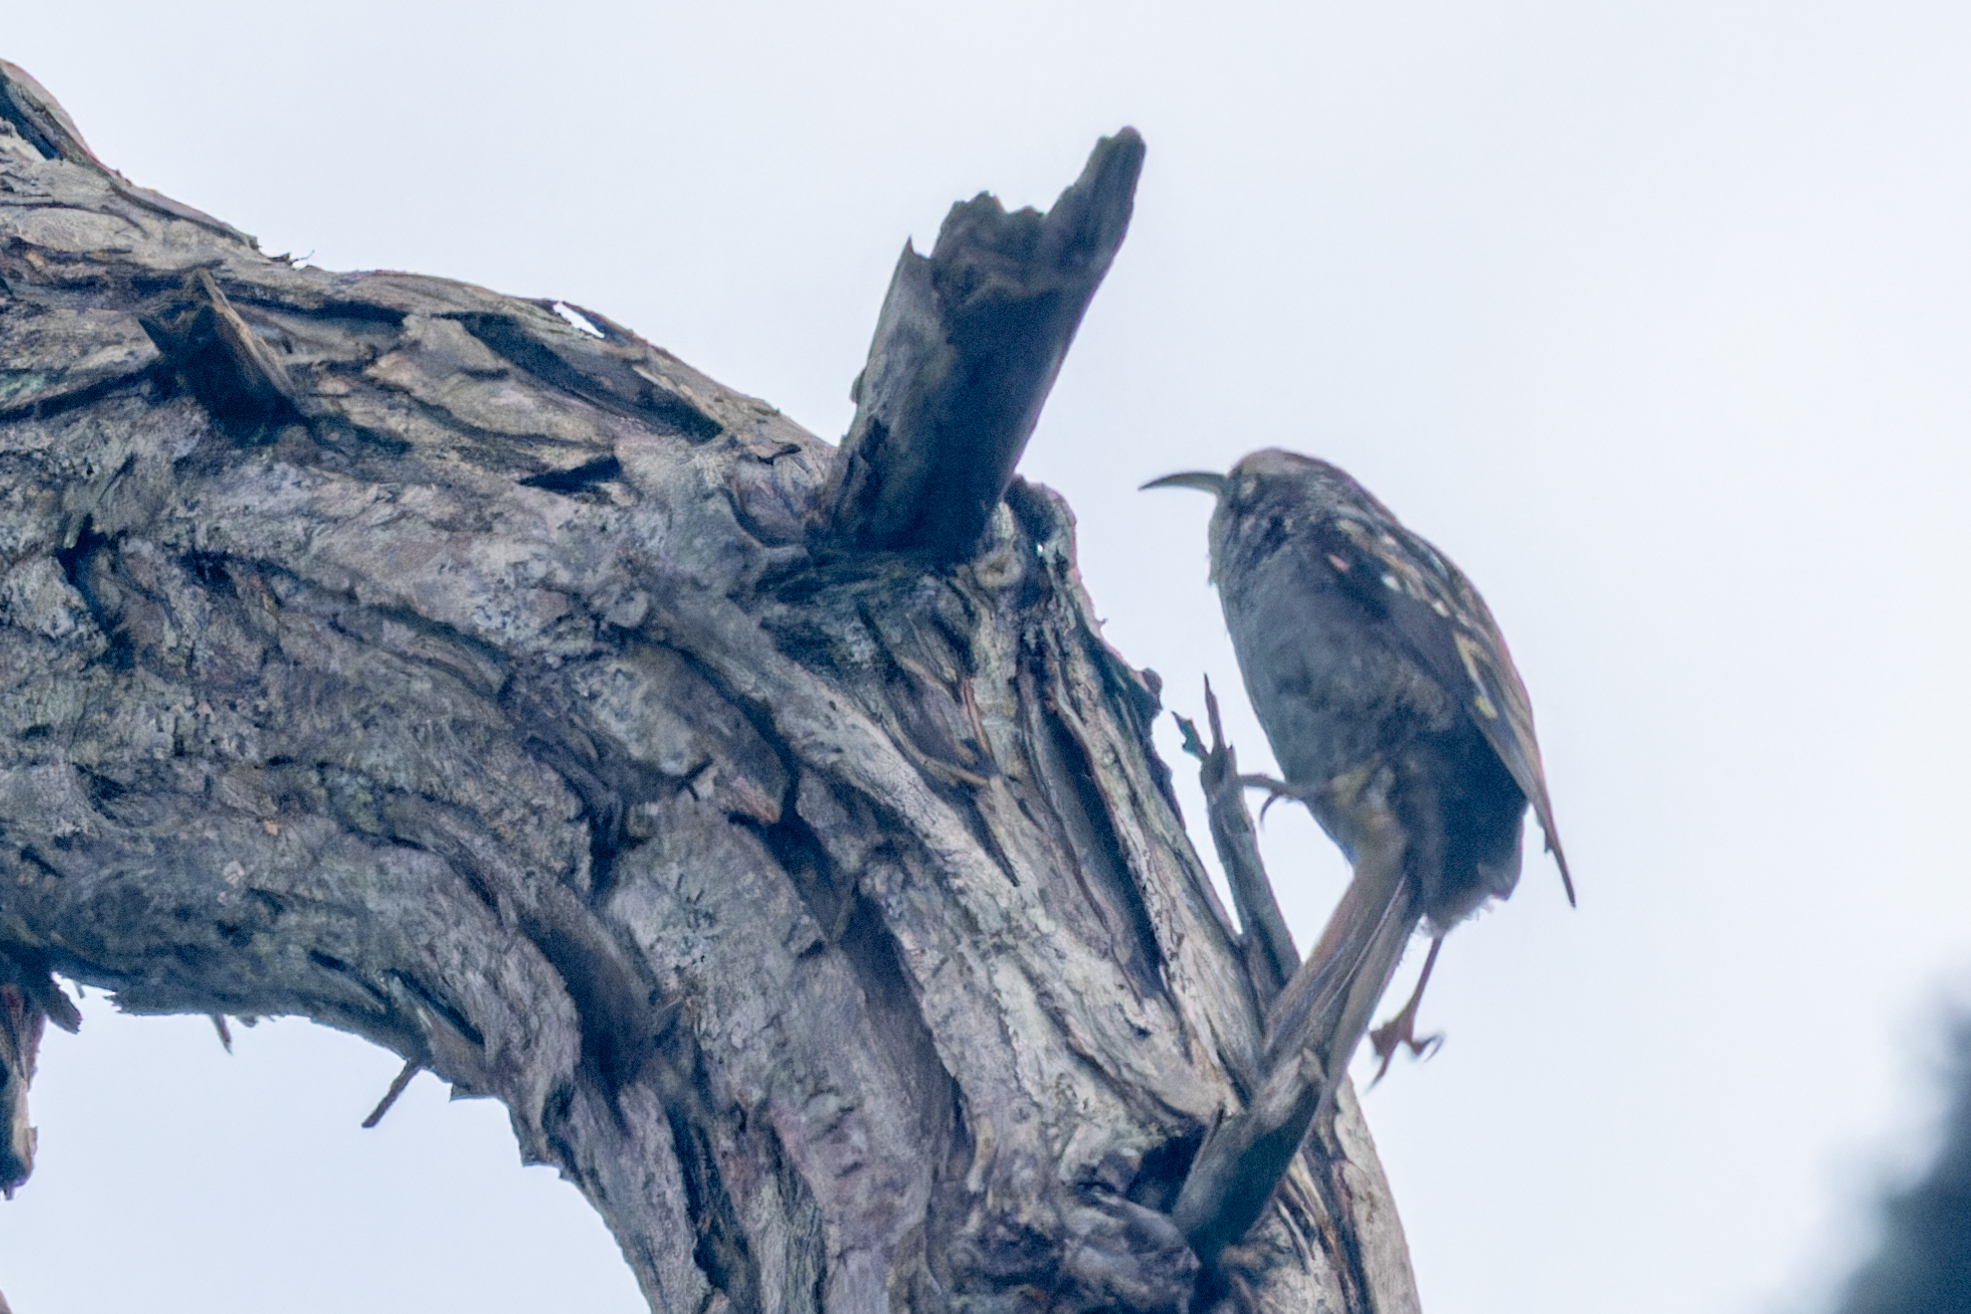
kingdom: Animalia
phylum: Chordata
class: Aves
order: Passeriformes
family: Certhiidae
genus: Certhia
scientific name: Certhia brachydactyla
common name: Short-toed treecreeper
